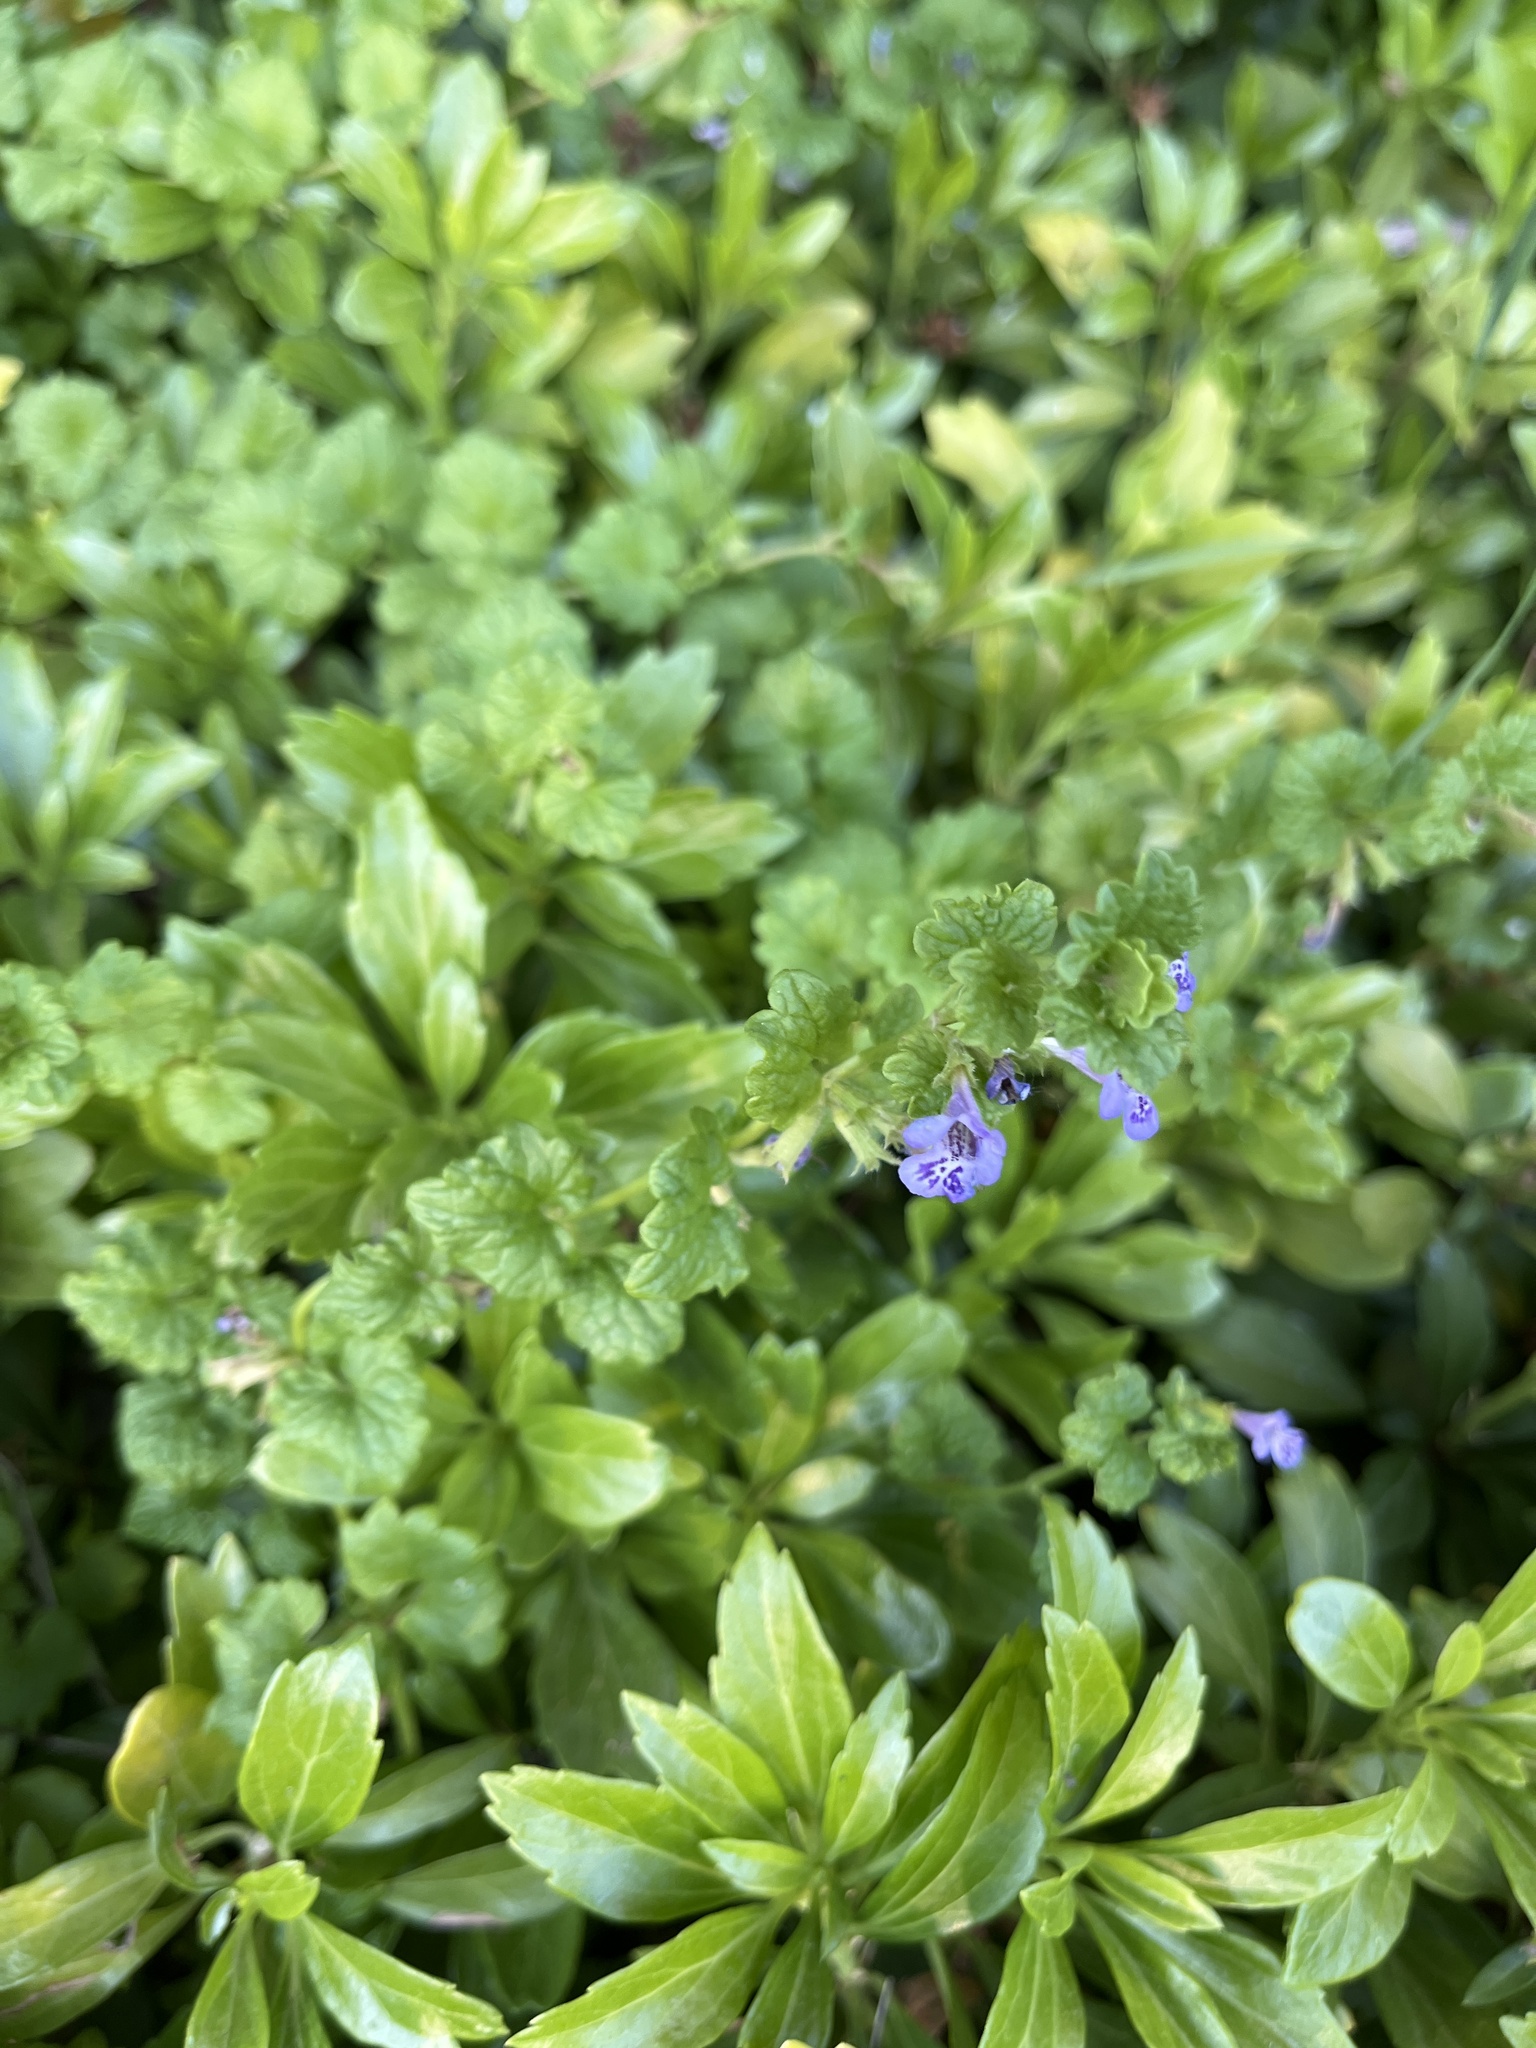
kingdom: Plantae
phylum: Tracheophyta
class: Magnoliopsida
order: Lamiales
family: Lamiaceae
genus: Glechoma
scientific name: Glechoma hederacea
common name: Ground ivy
